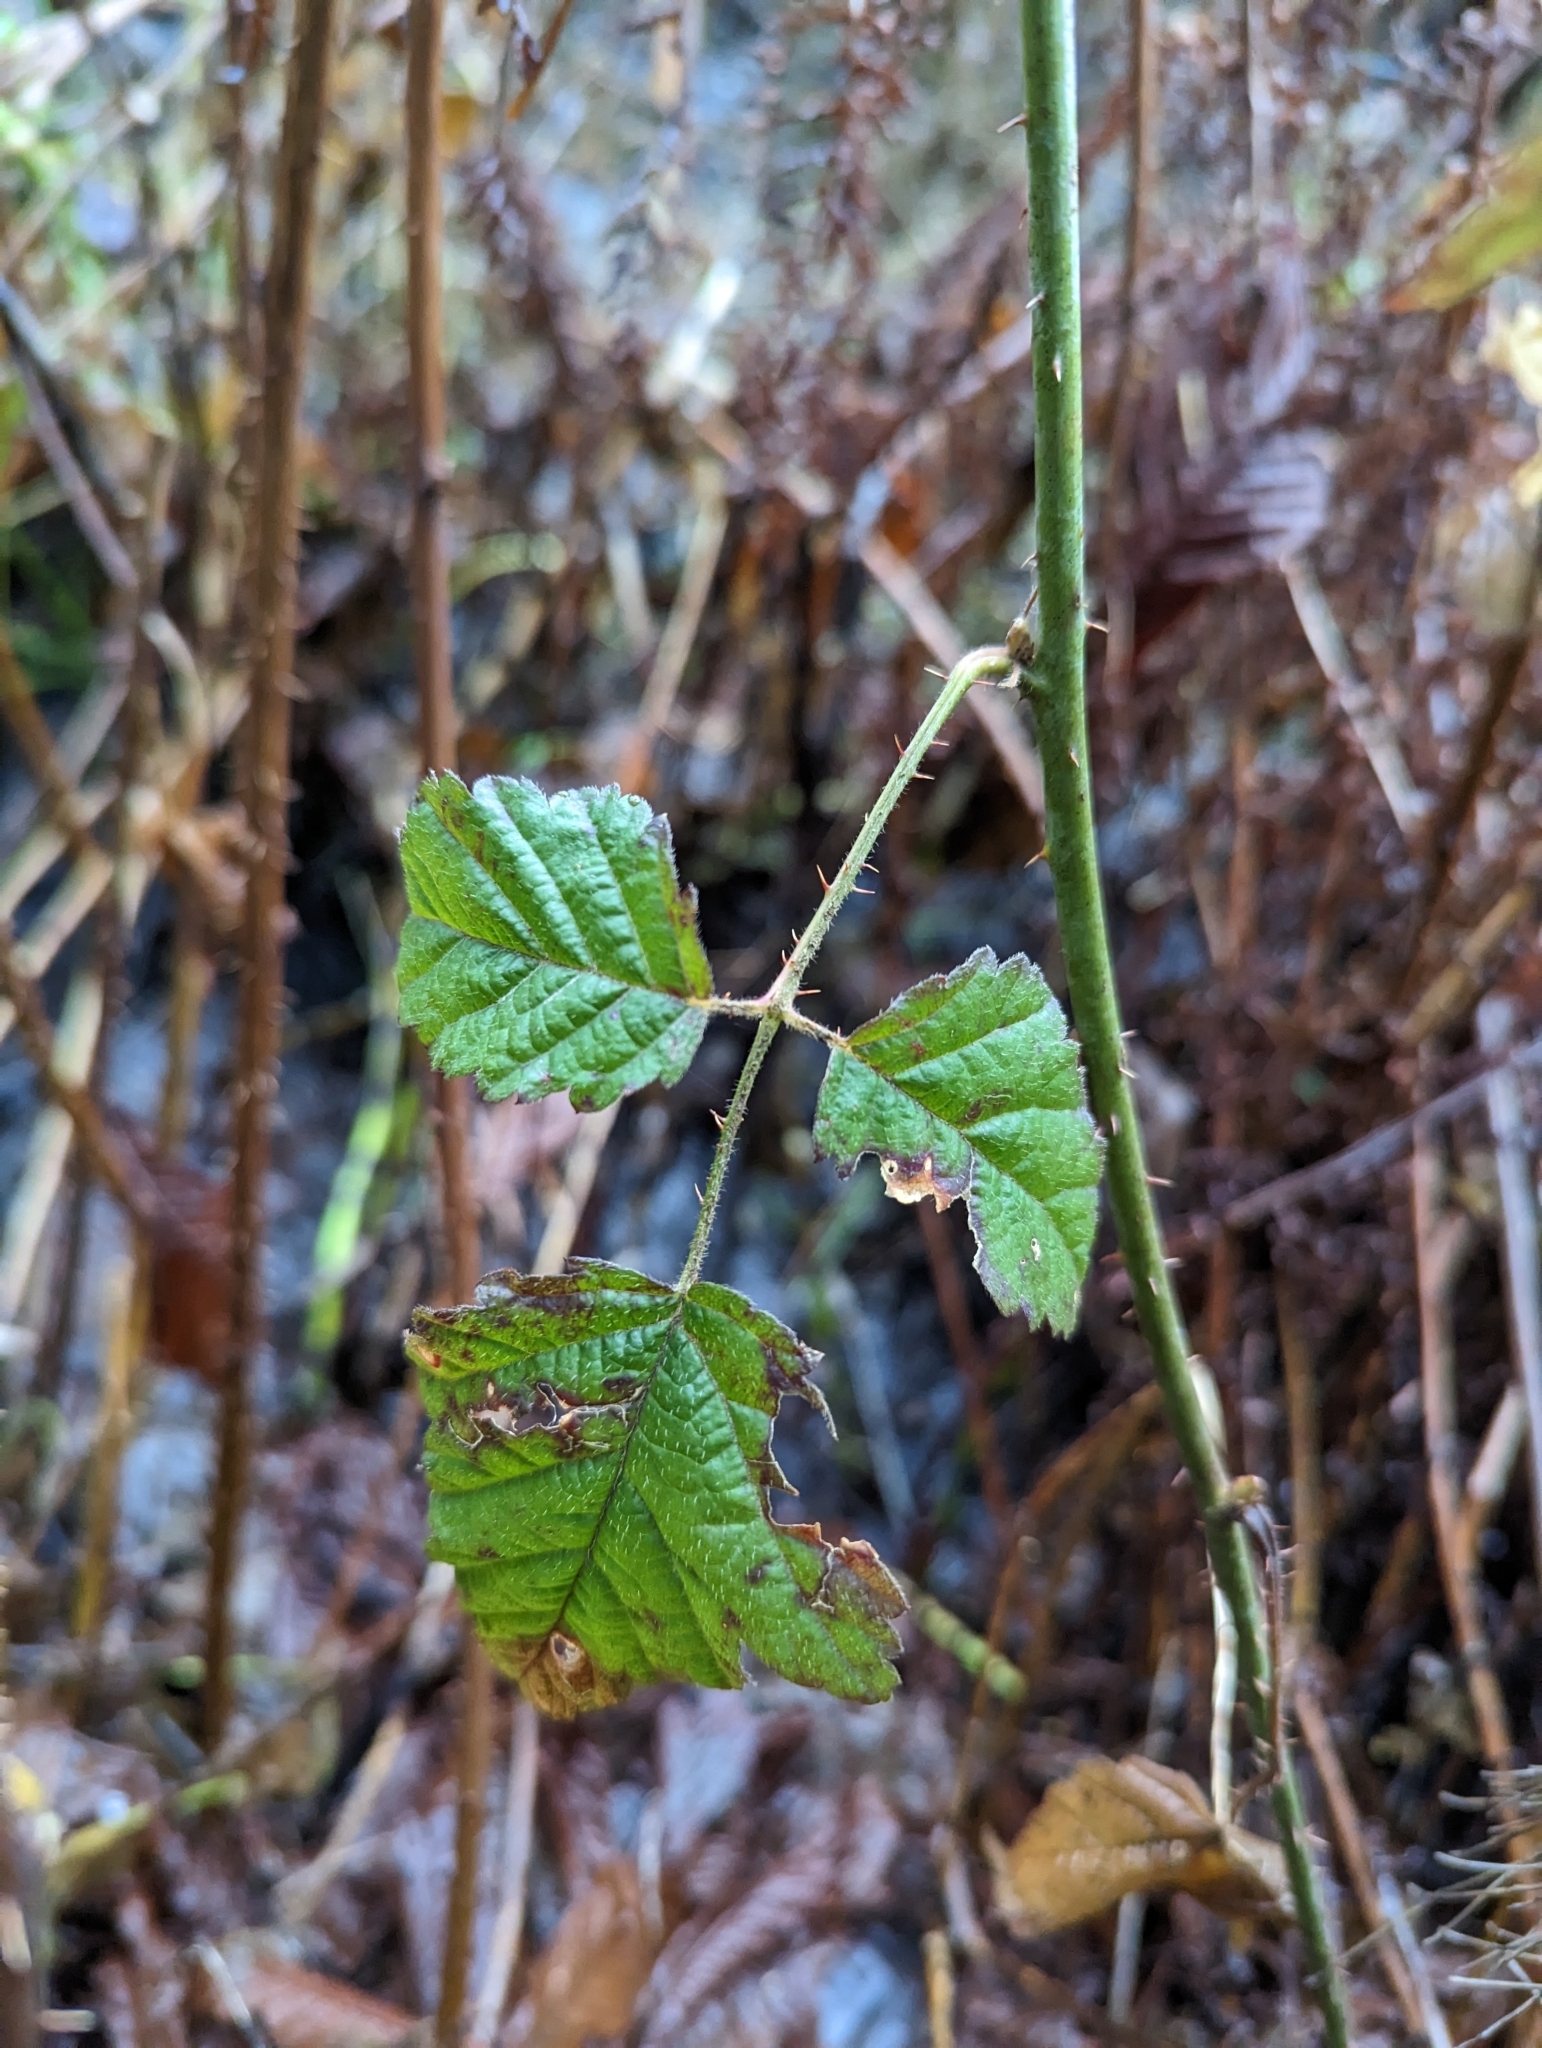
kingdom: Plantae
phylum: Tracheophyta
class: Magnoliopsida
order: Rosales
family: Rosaceae
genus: Rubus
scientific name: Rubus ursinus
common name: Pacific blackberry
